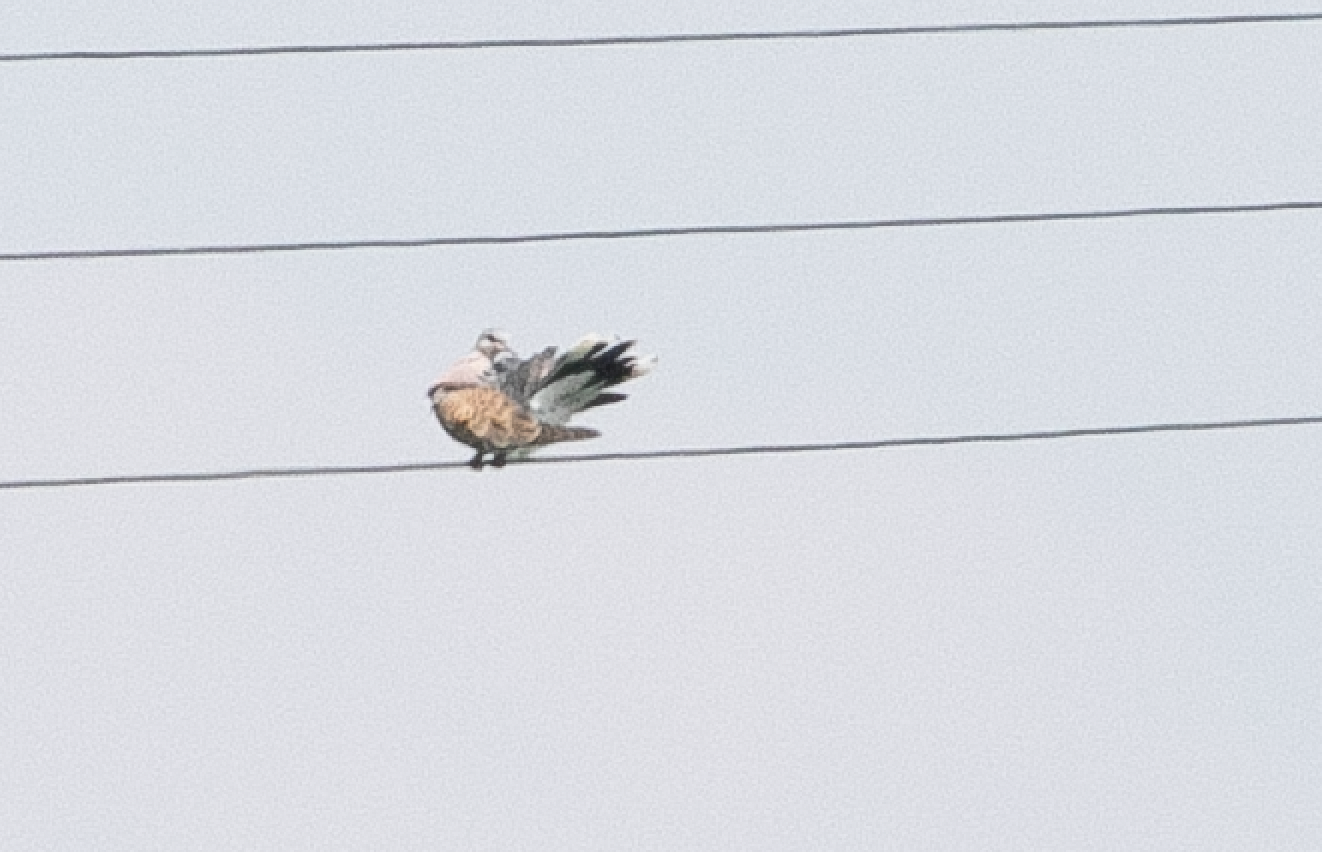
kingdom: Animalia
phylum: Chordata
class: Aves
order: Columbiformes
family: Columbidae
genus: Streptopelia
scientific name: Streptopelia turtur
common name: European turtle dove
